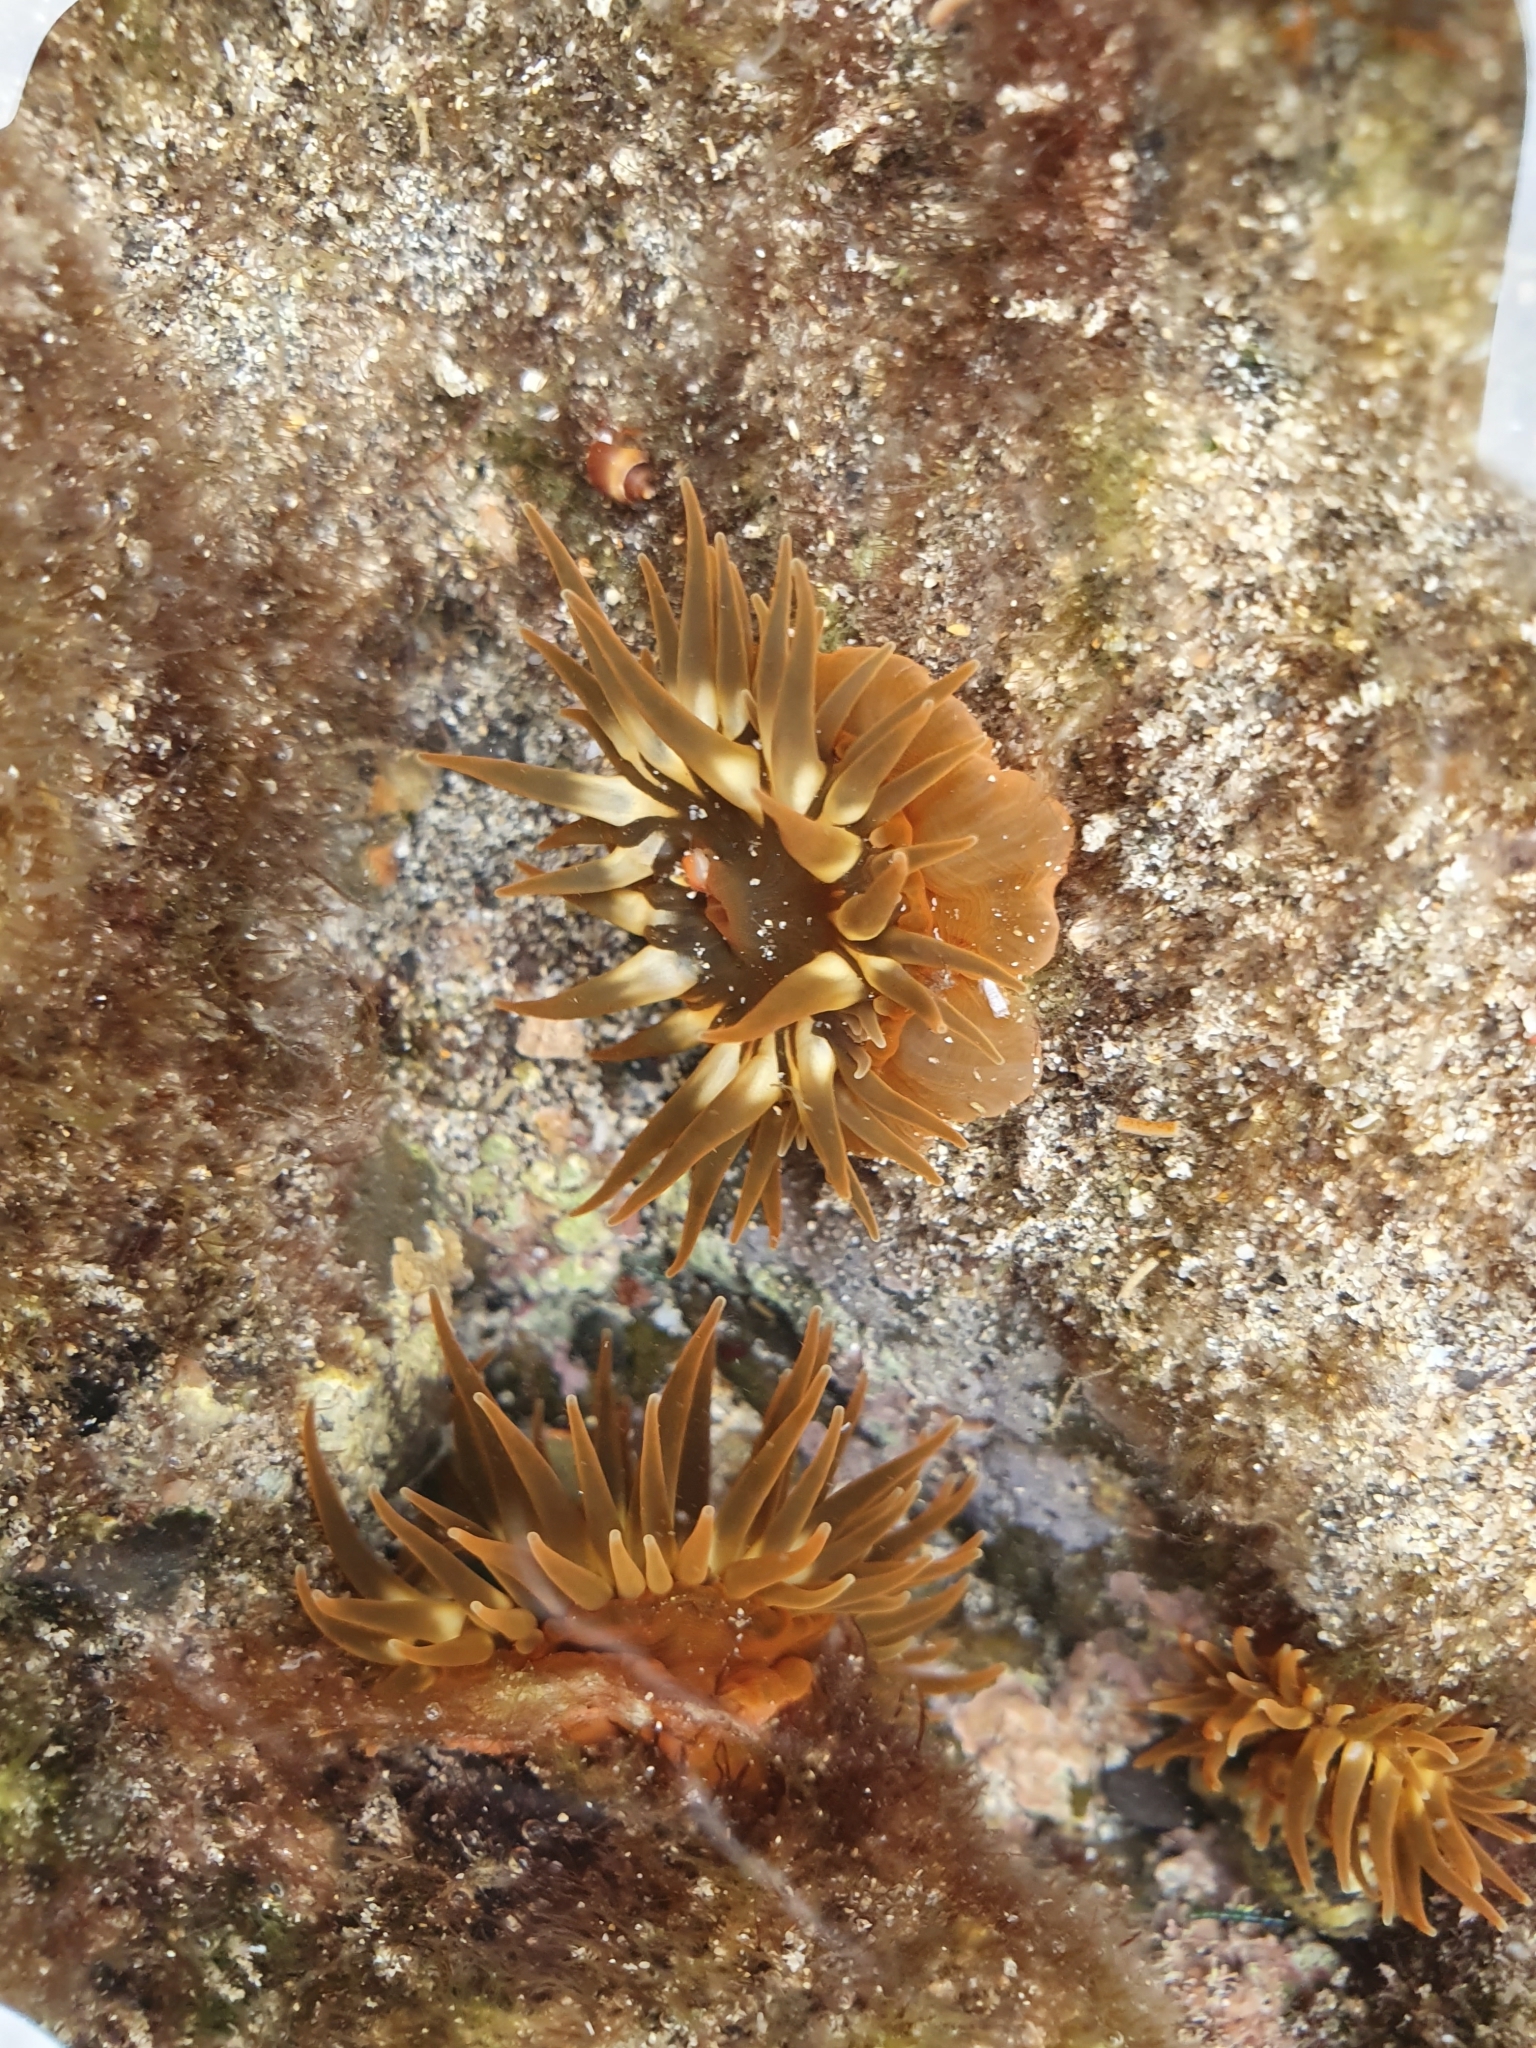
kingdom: Animalia
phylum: Cnidaria
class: Anthozoa
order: Actiniaria
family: Actiniidae
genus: Anemonia
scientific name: Anemonia sargassensis
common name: Sargassum anemone
